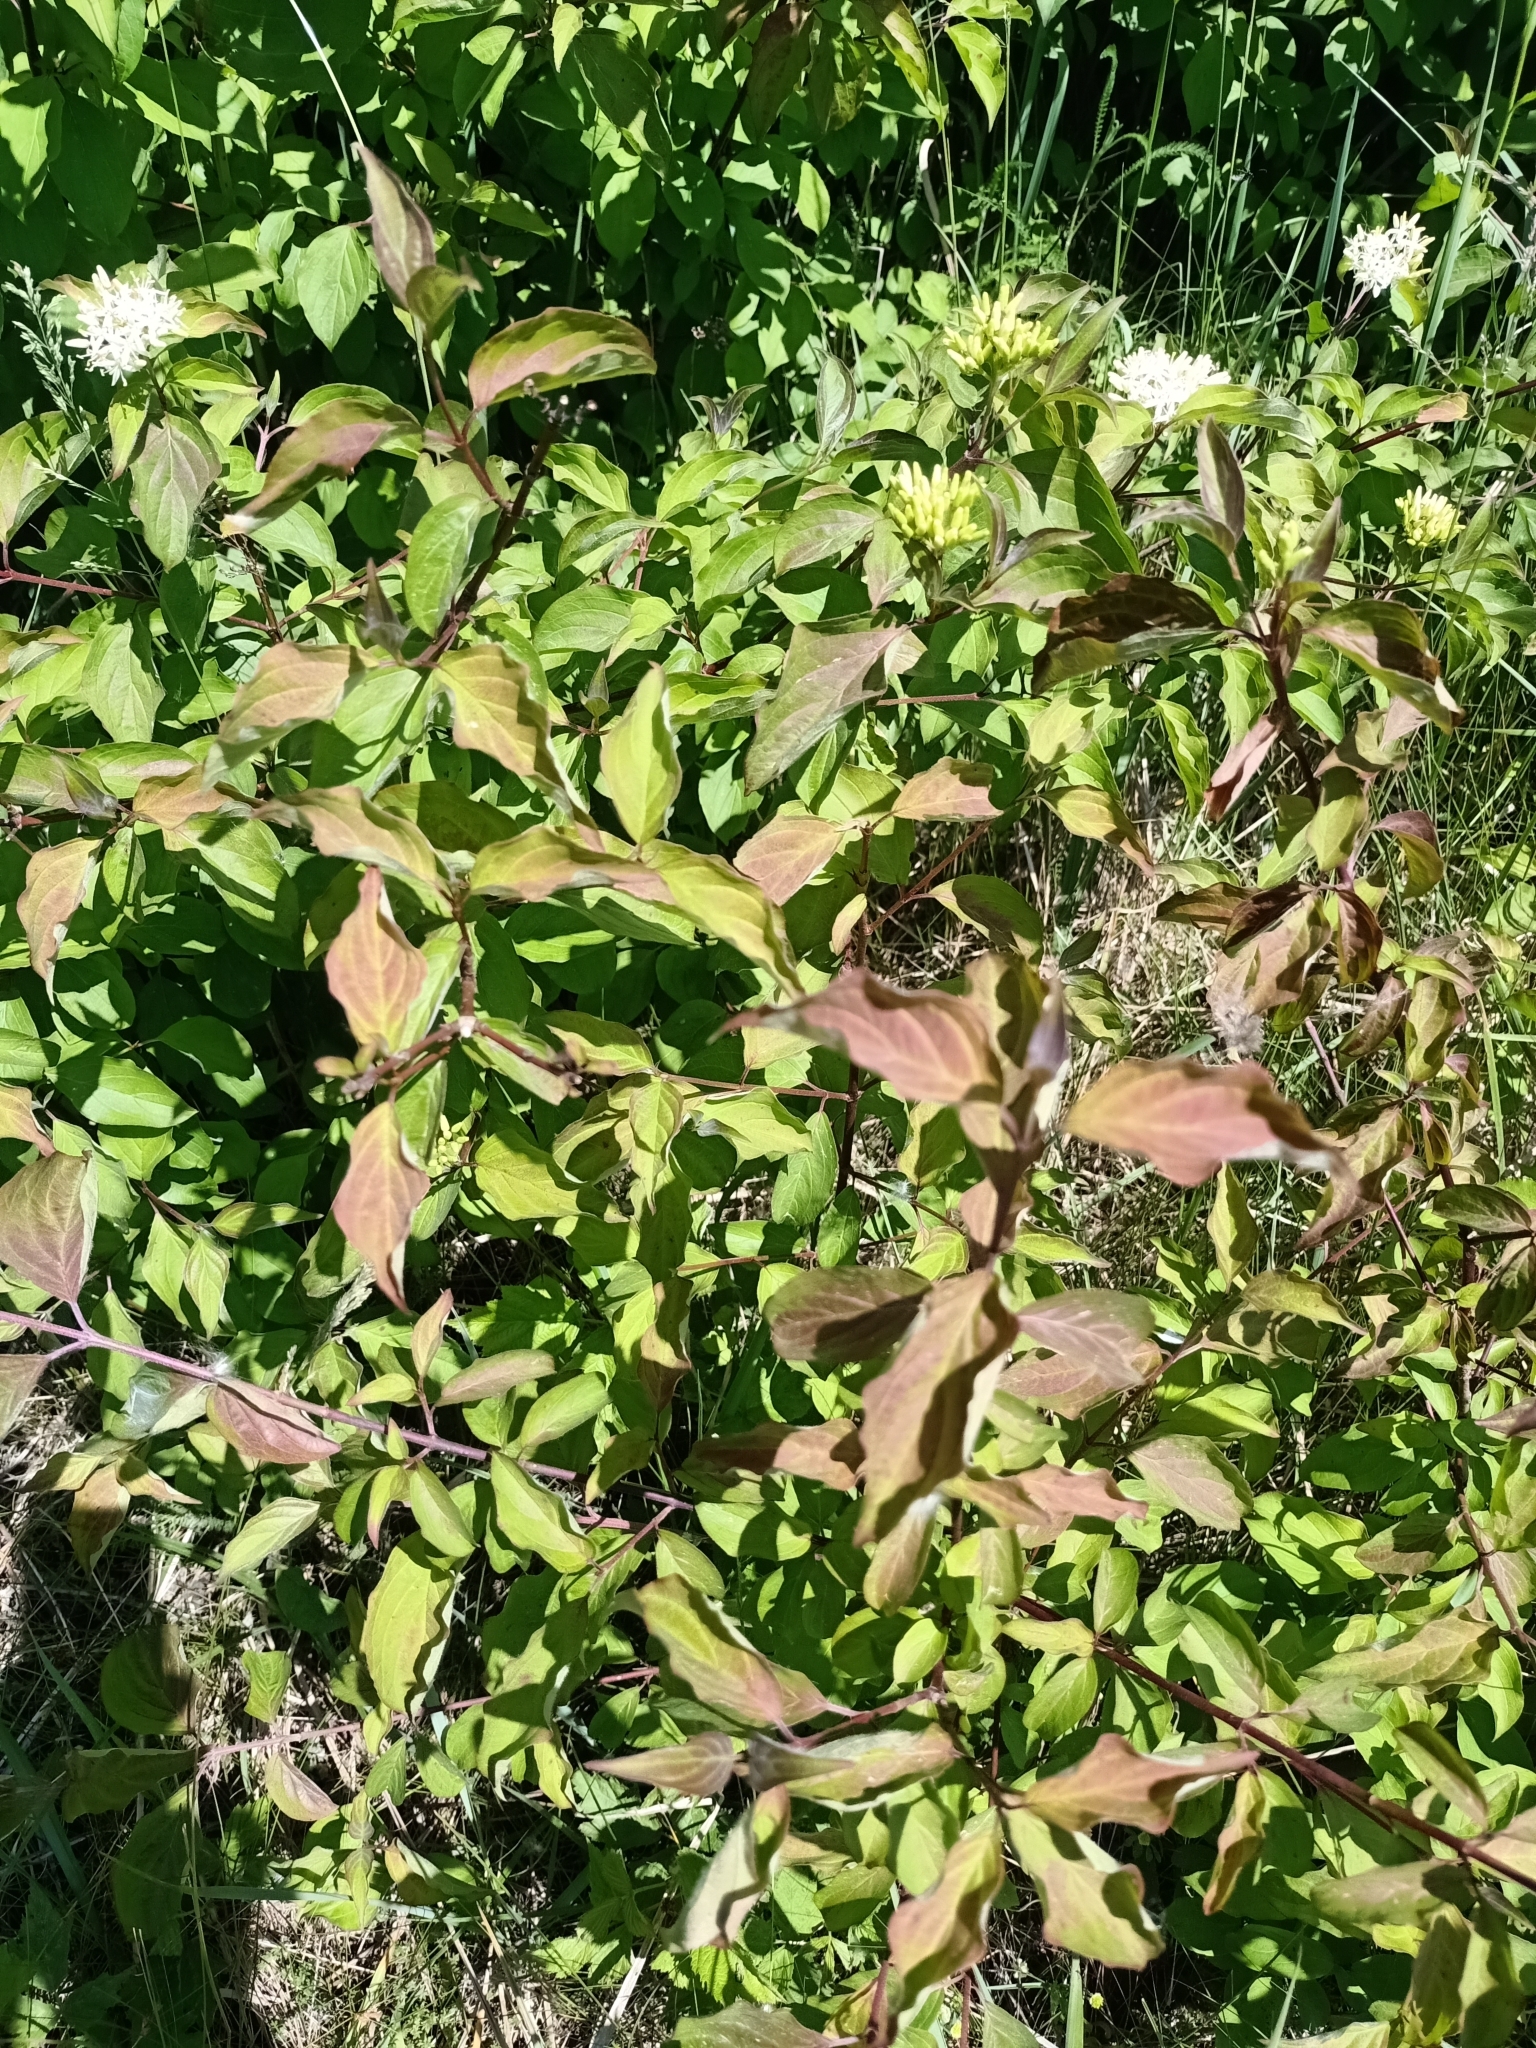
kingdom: Plantae
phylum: Tracheophyta
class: Magnoliopsida
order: Cornales
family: Cornaceae
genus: Cornus
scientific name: Cornus sanguinea
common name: Dogwood
